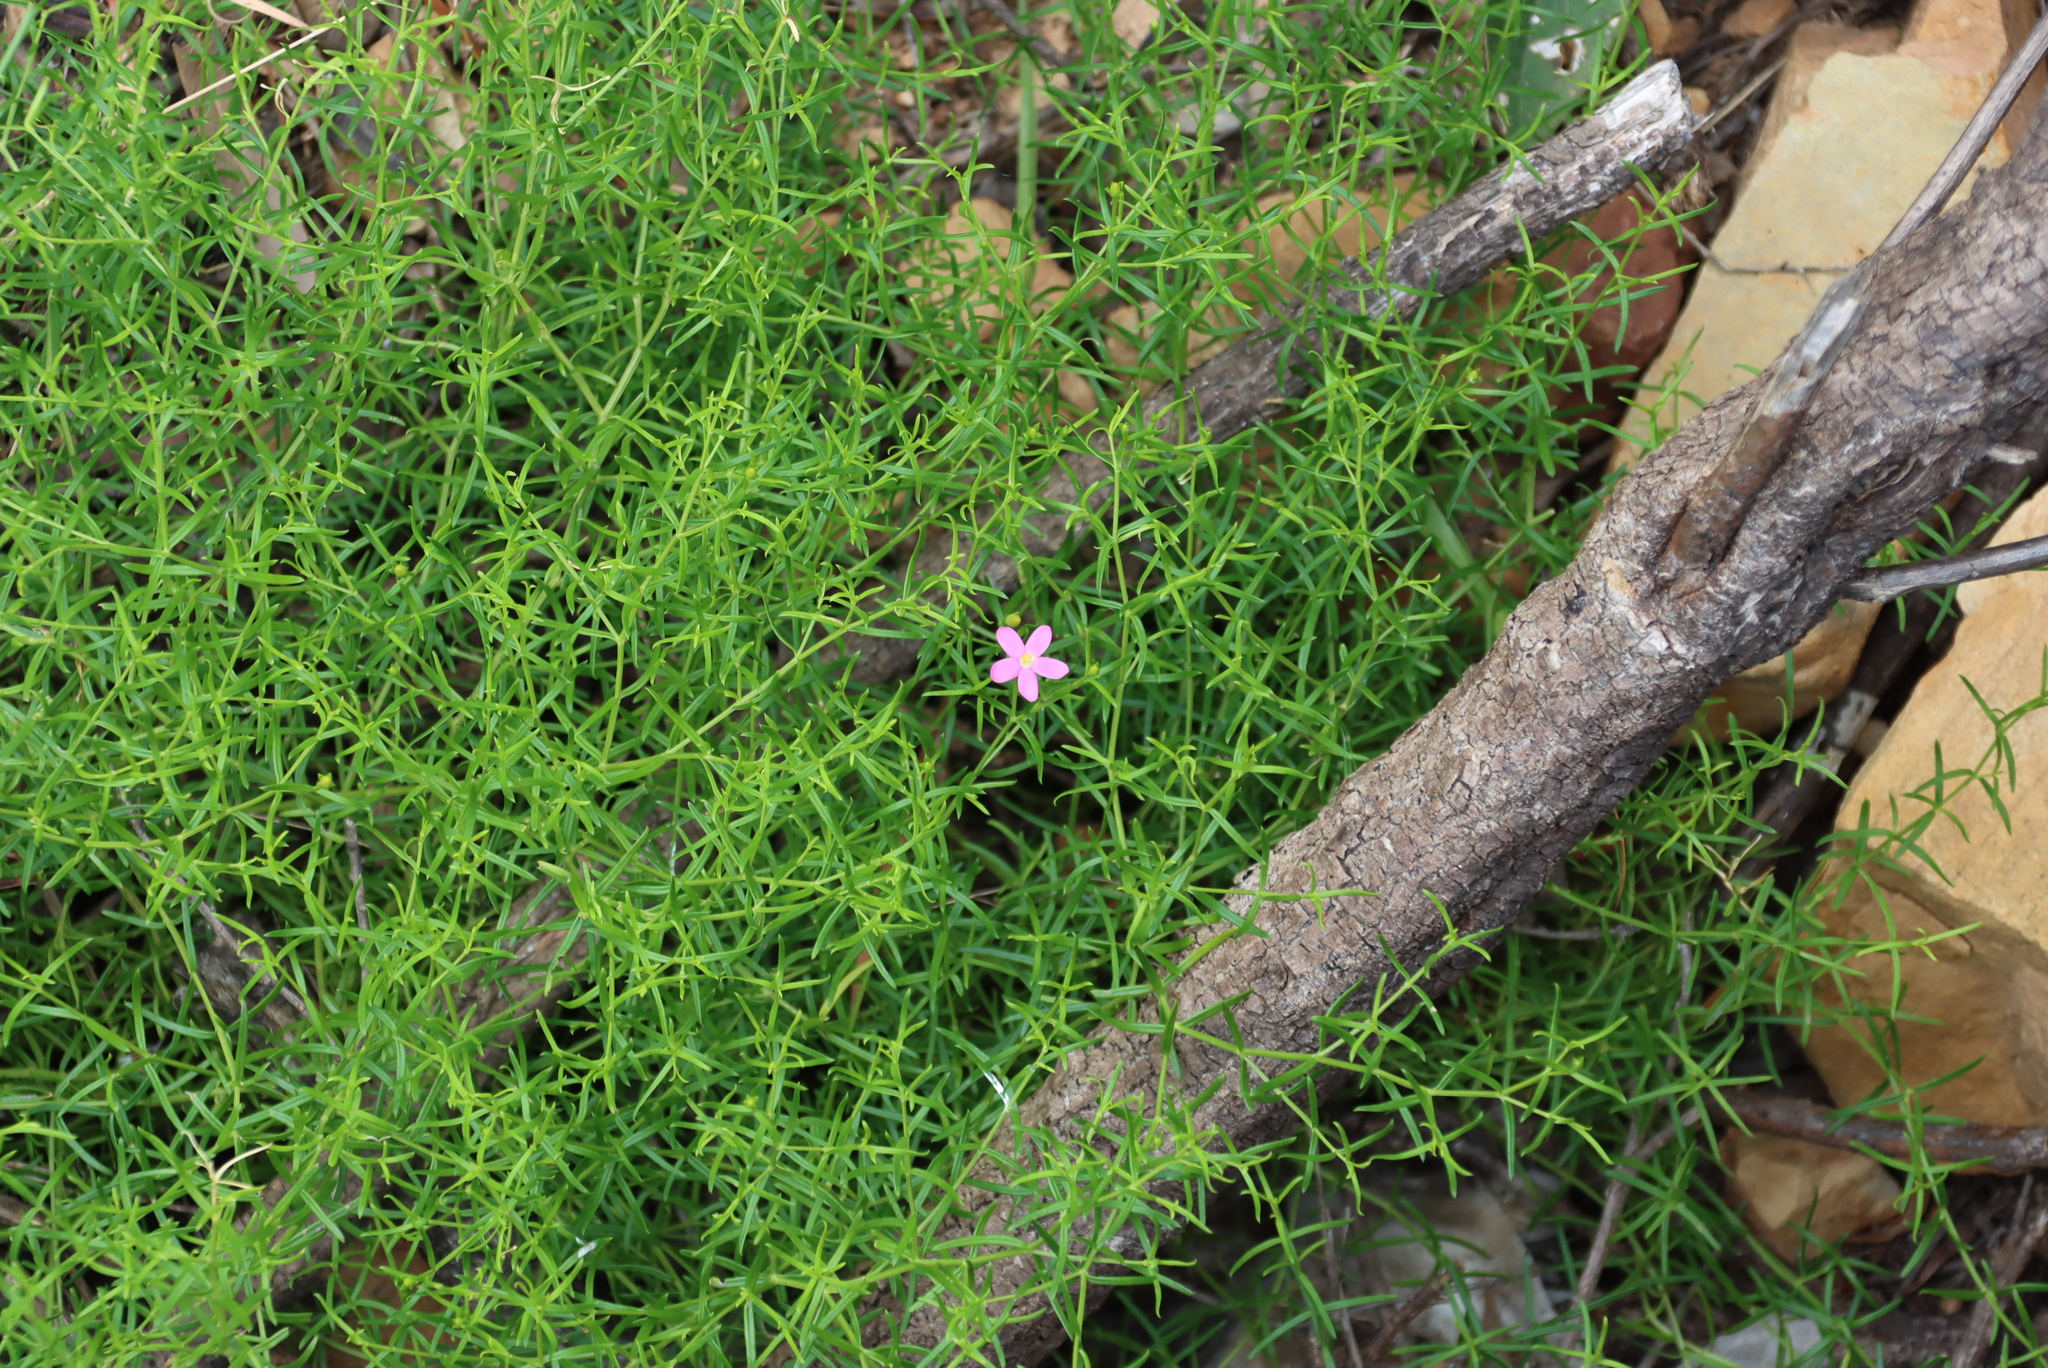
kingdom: Plantae
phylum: Tracheophyta
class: Magnoliopsida
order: Gentianales
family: Gentianaceae
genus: Chironia
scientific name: Chironia baccifera
